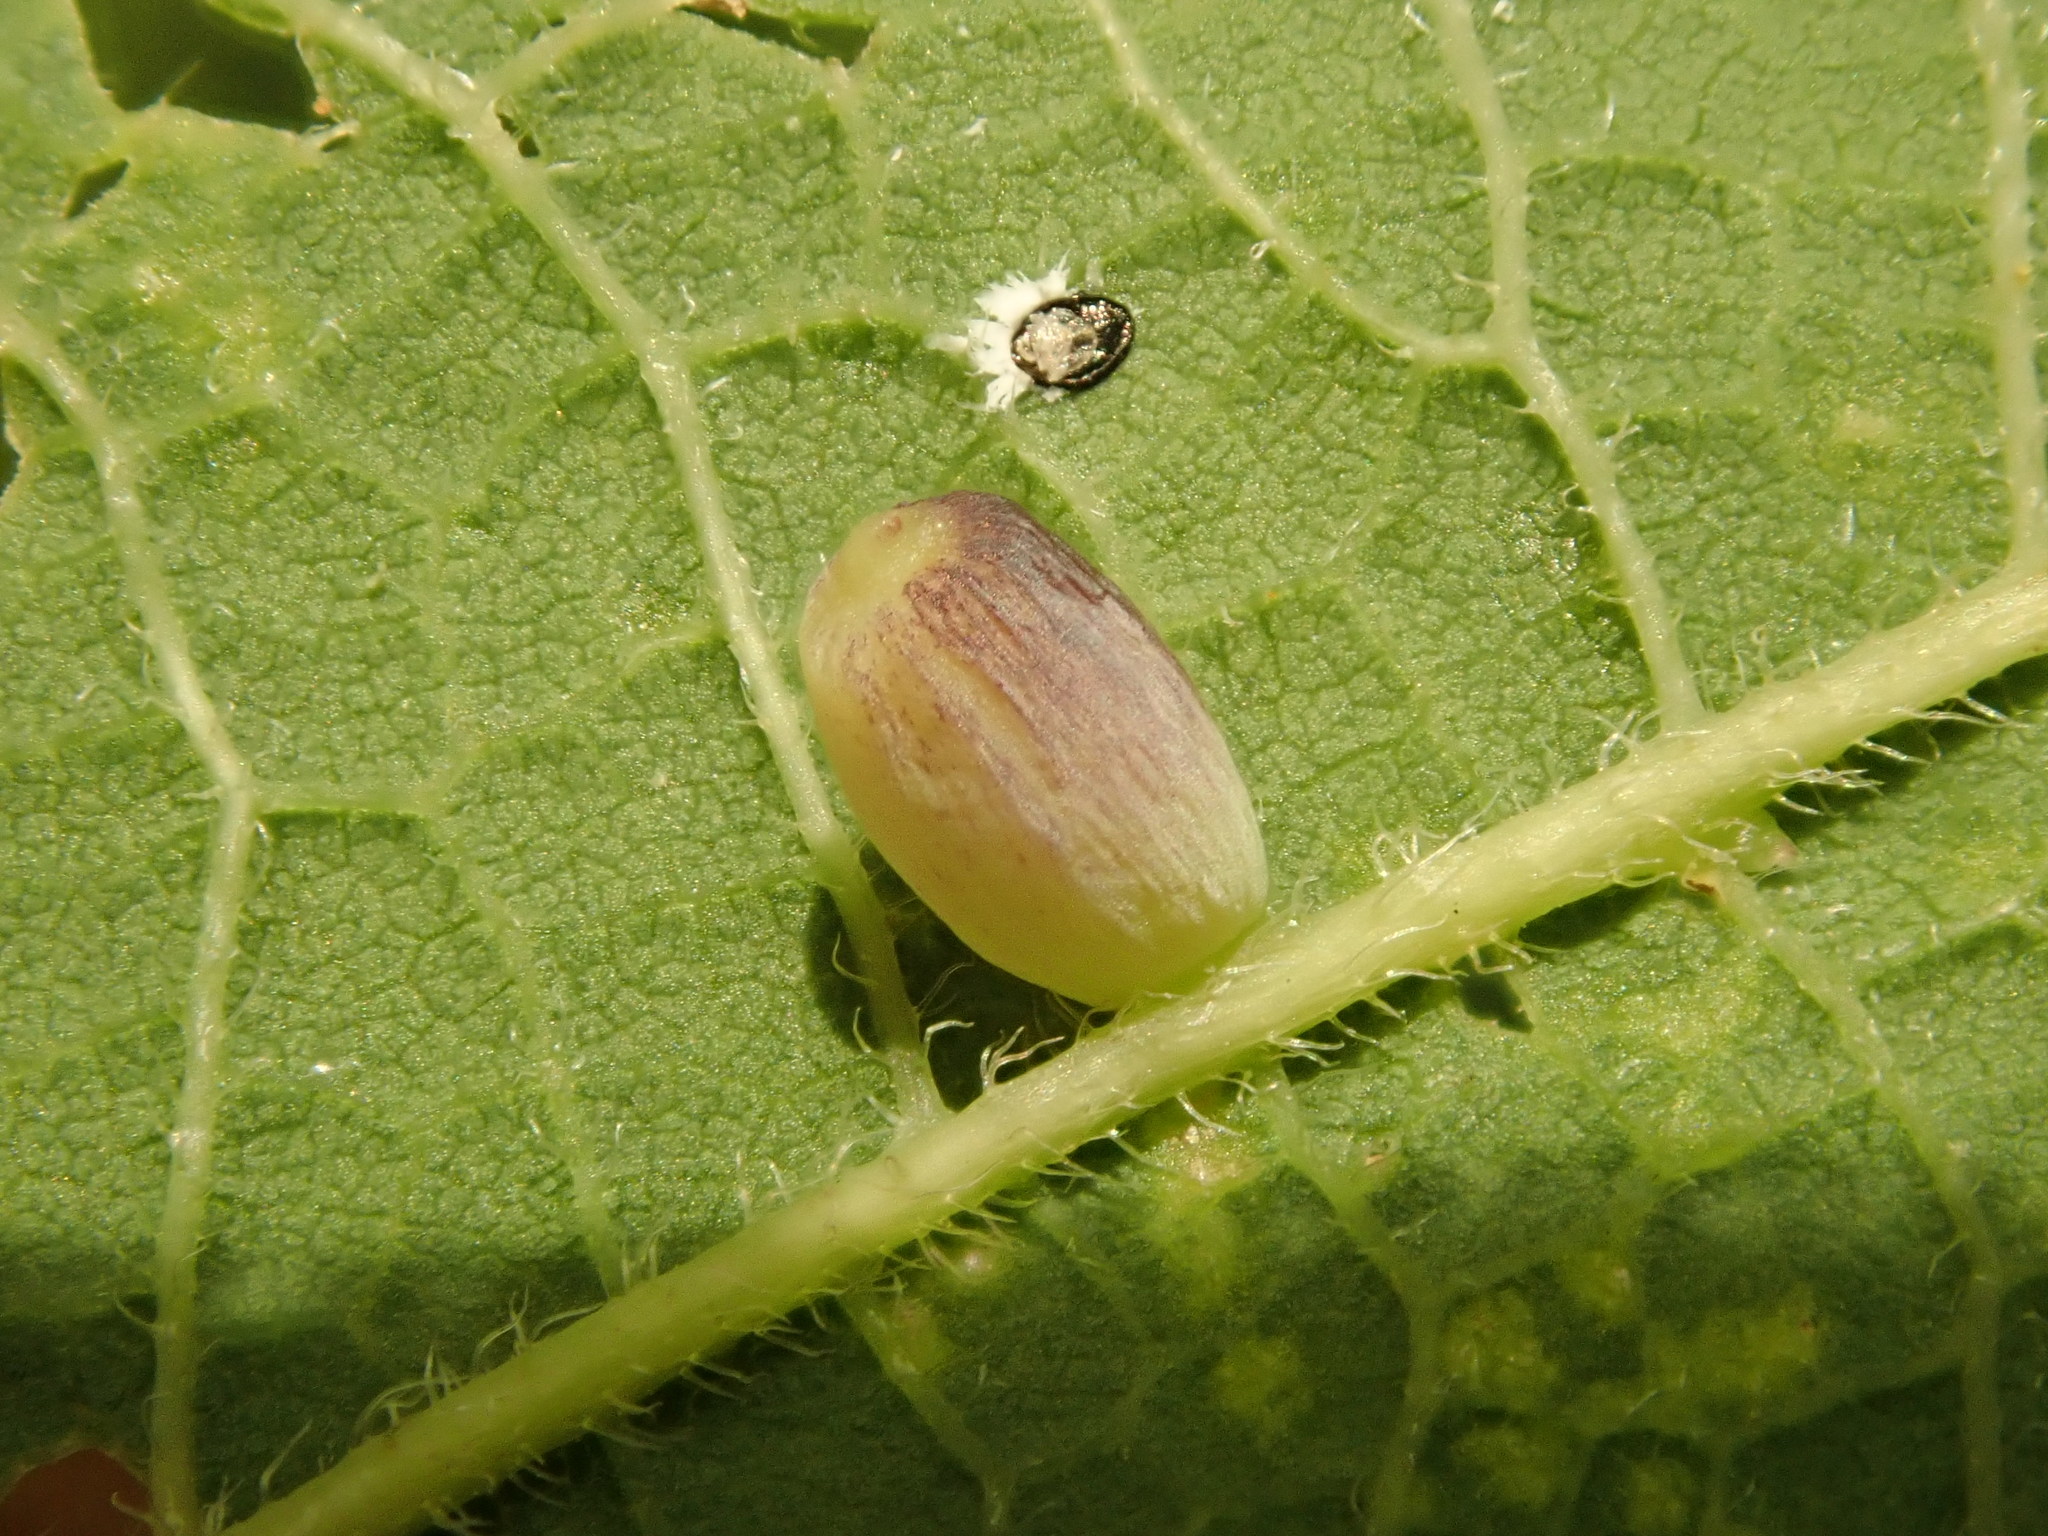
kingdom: Animalia
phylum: Arthropoda
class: Insecta
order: Diptera
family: Cecidomyiidae
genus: Celticecis
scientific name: Celticecis globosa
